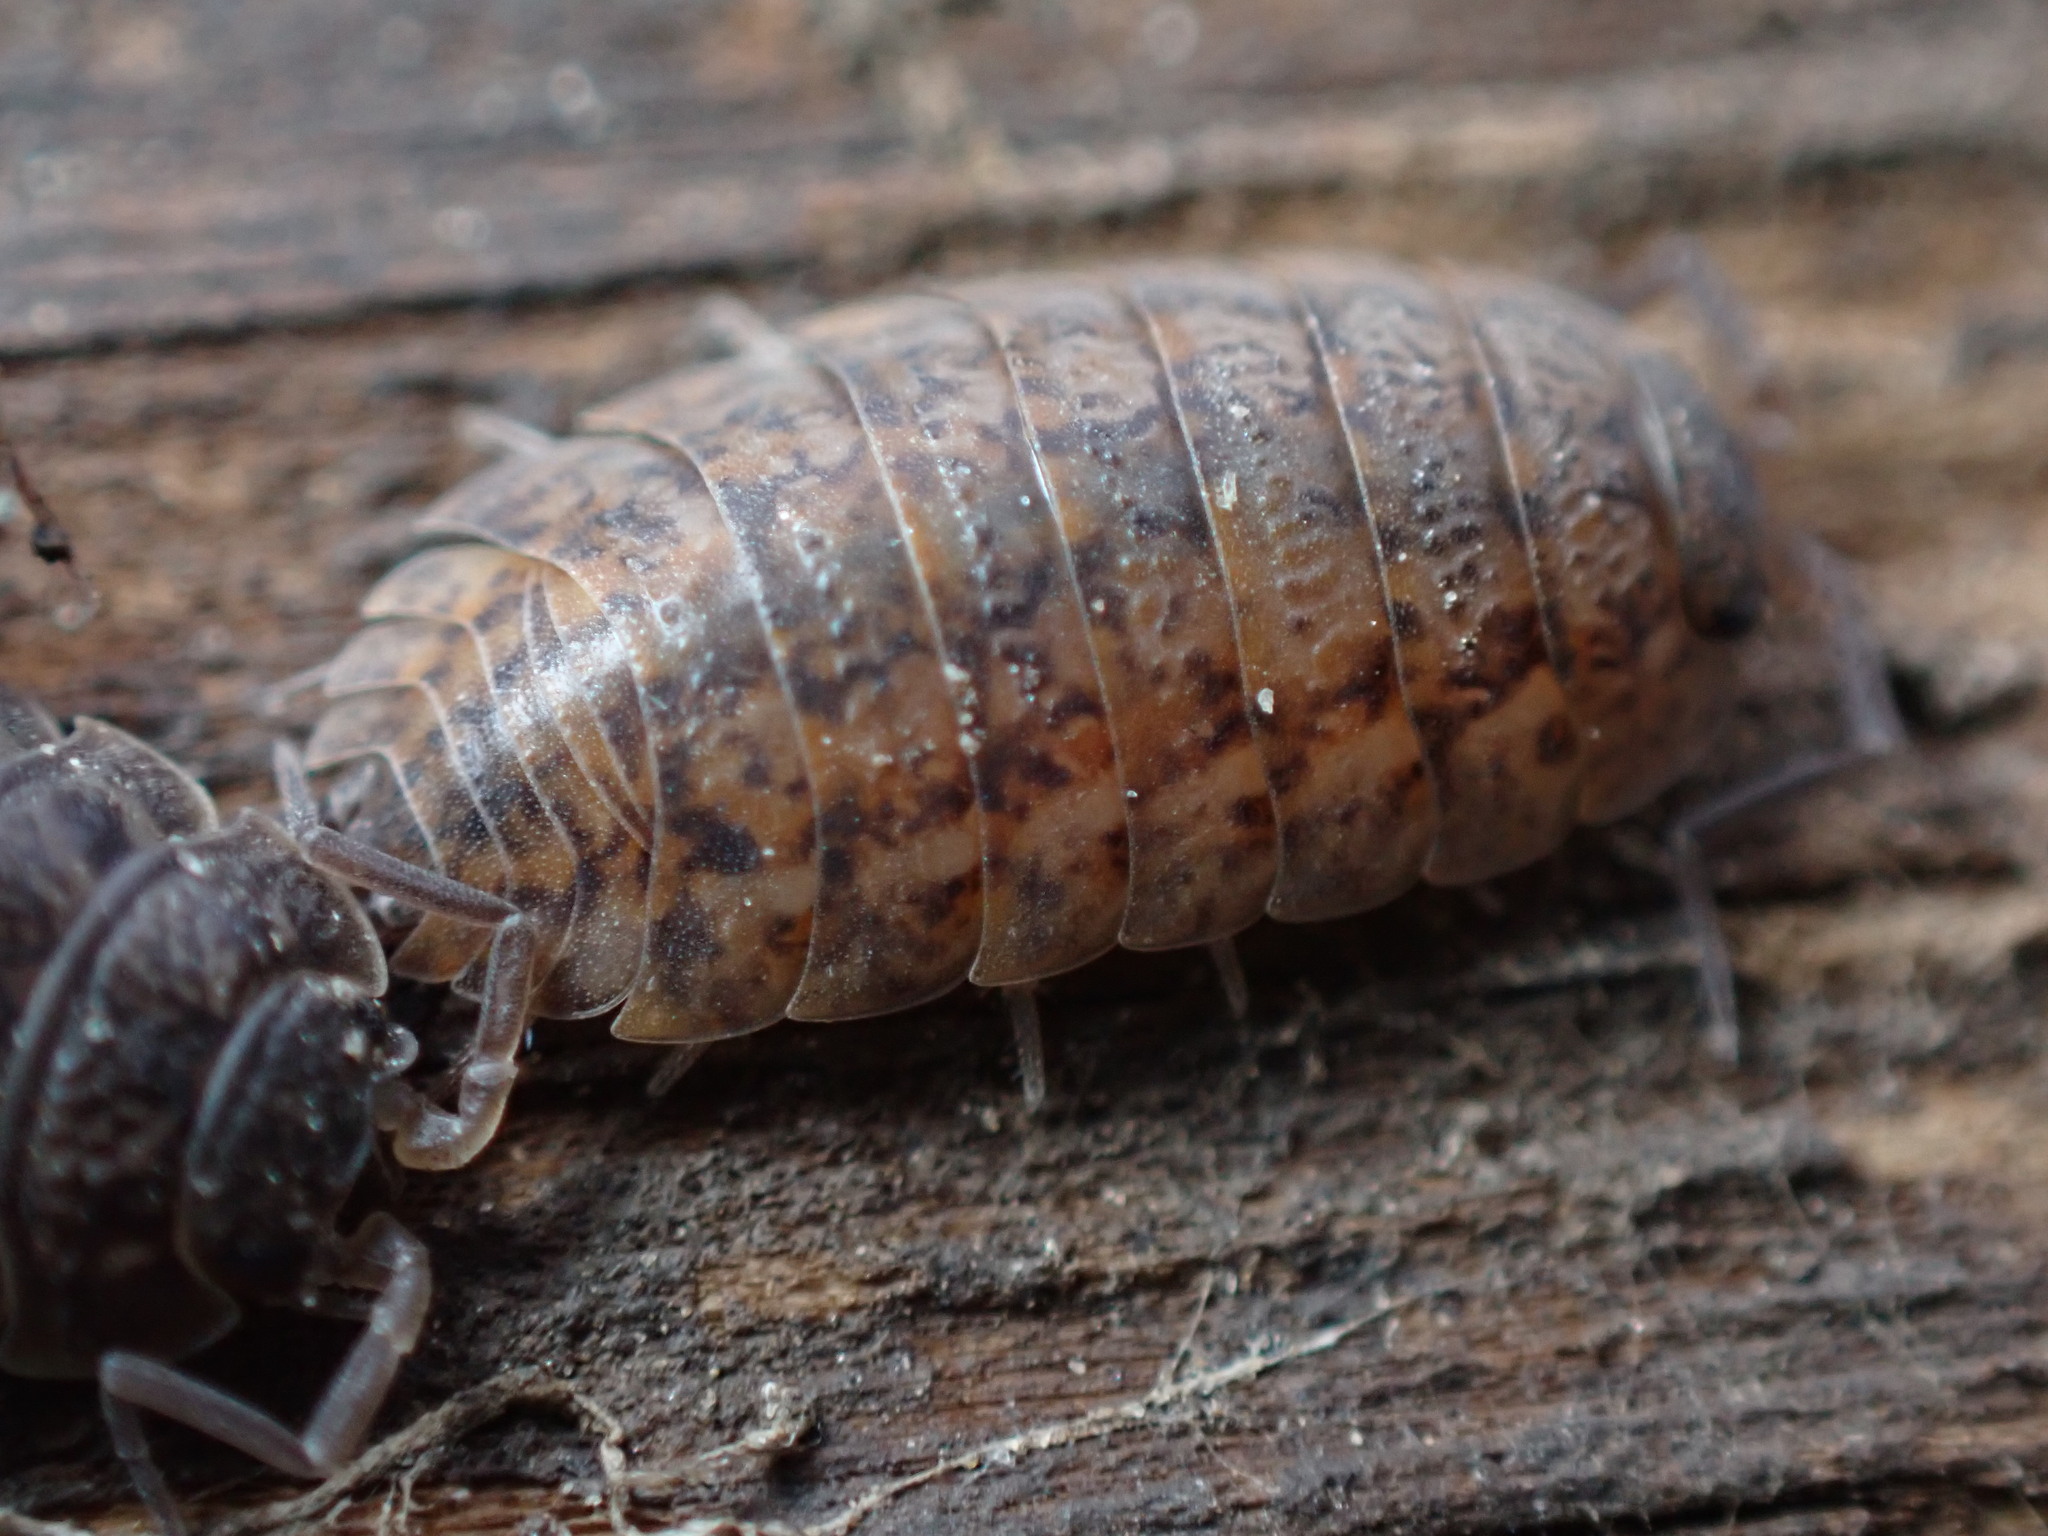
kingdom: Animalia
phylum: Arthropoda
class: Malacostraca
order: Isopoda
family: Trachelipodidae
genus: Trachelipus
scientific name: Trachelipus rathkii
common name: Isopod
